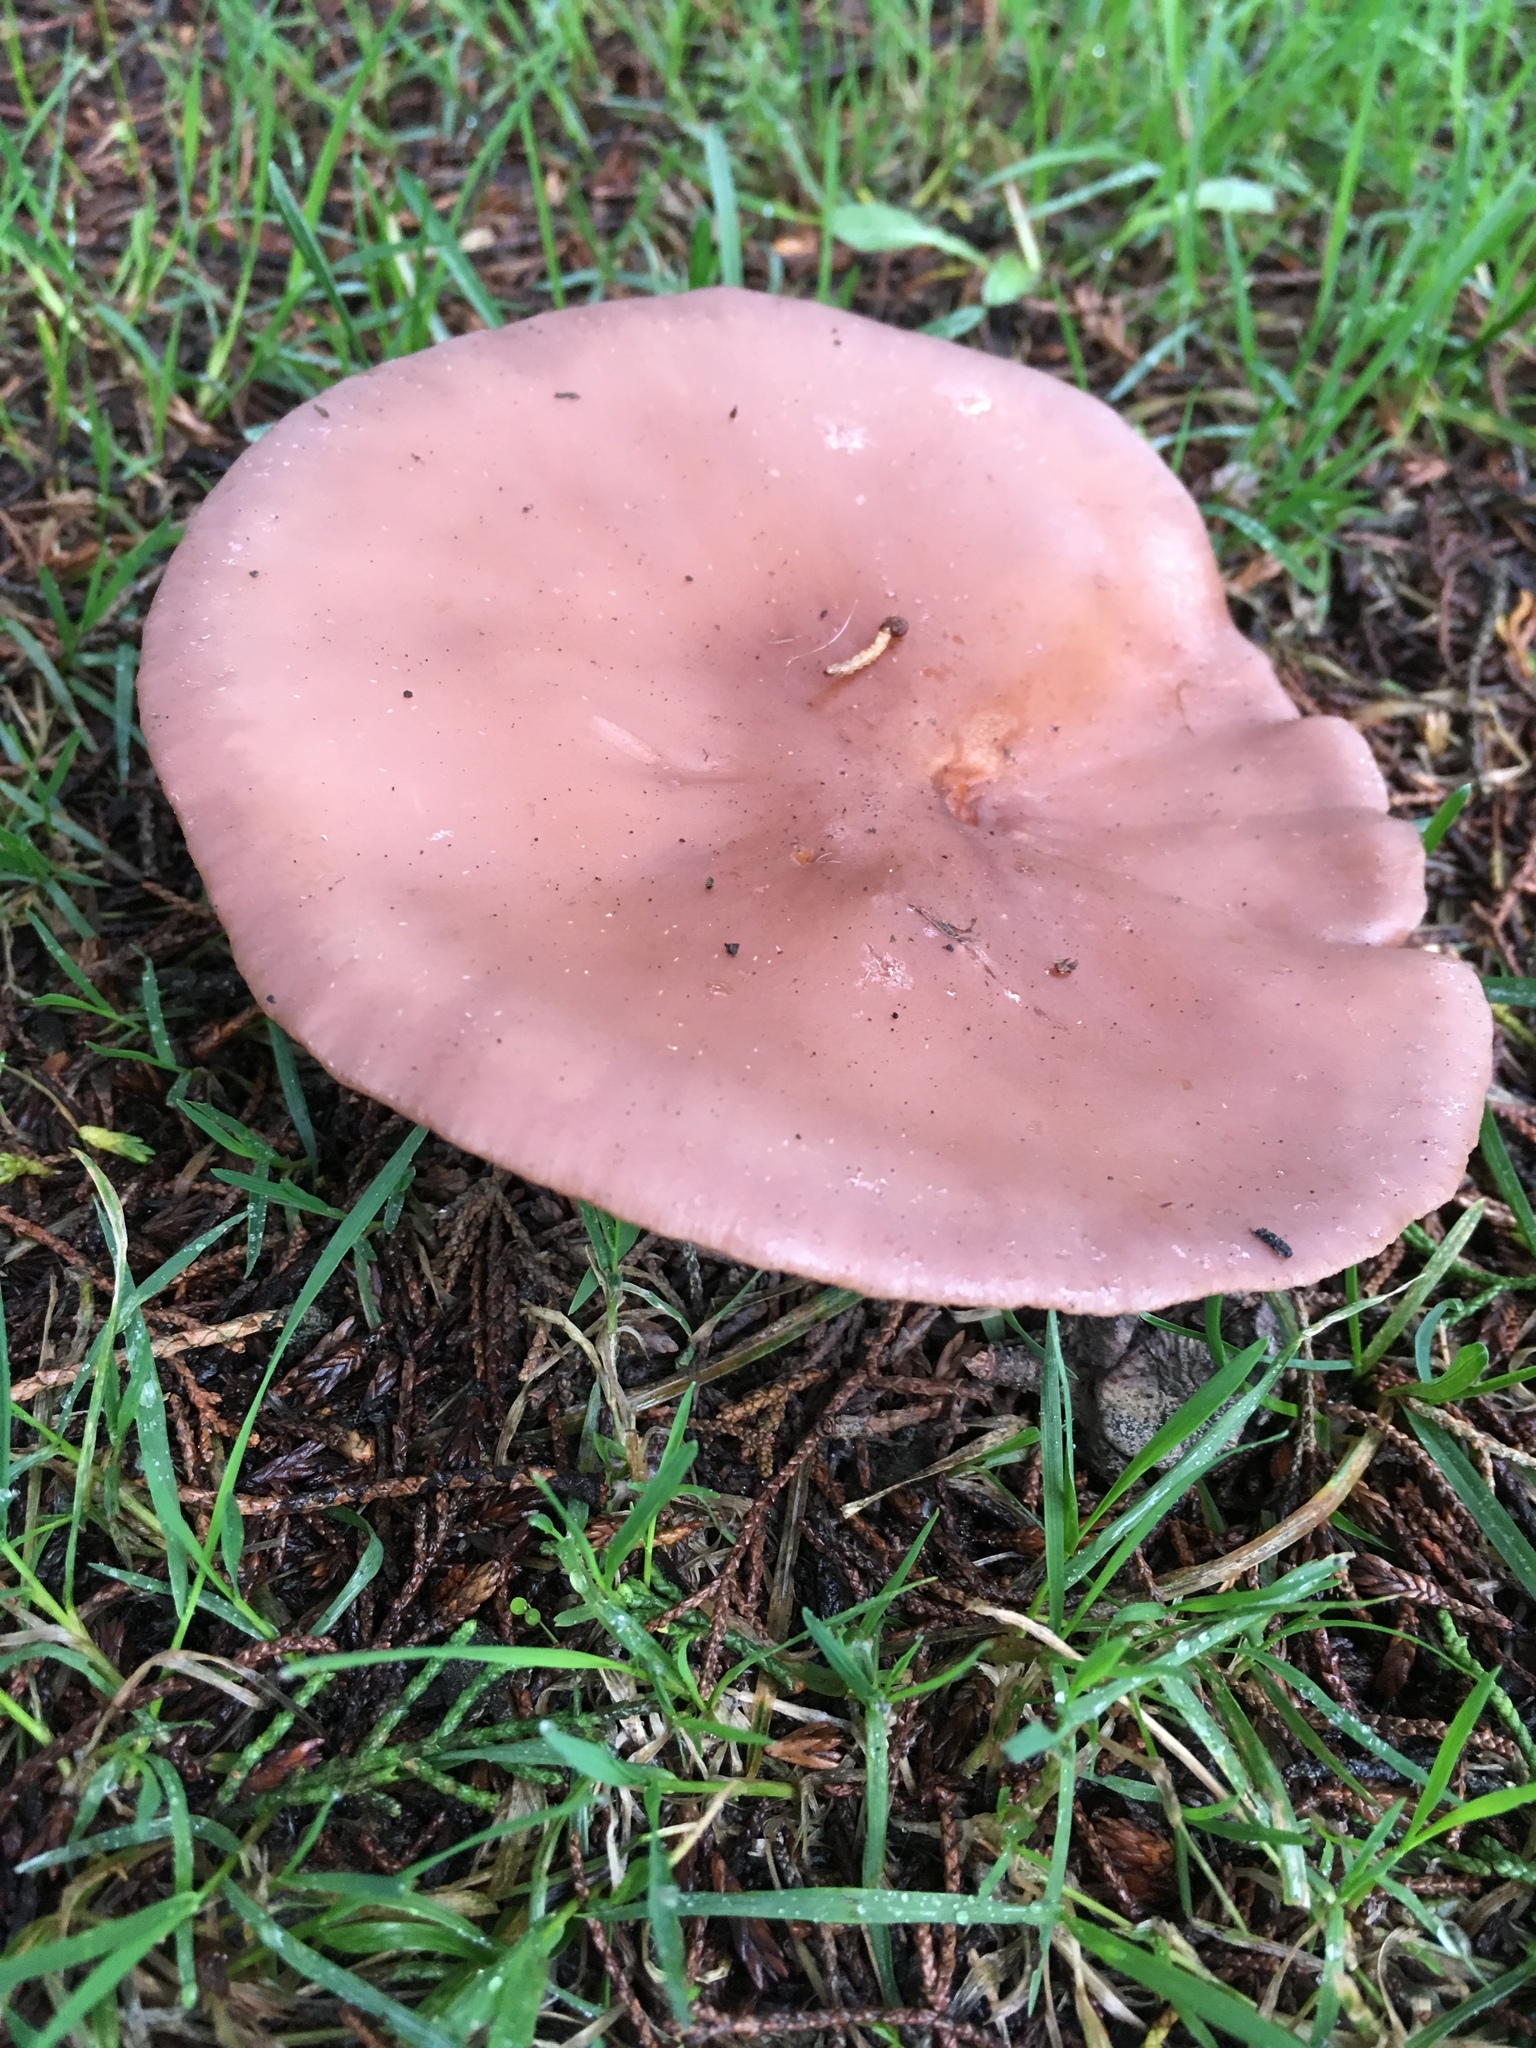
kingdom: Fungi
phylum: Basidiomycota
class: Agaricomycetes
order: Agaricales
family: Tricholomataceae
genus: Collybia
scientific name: Collybia
